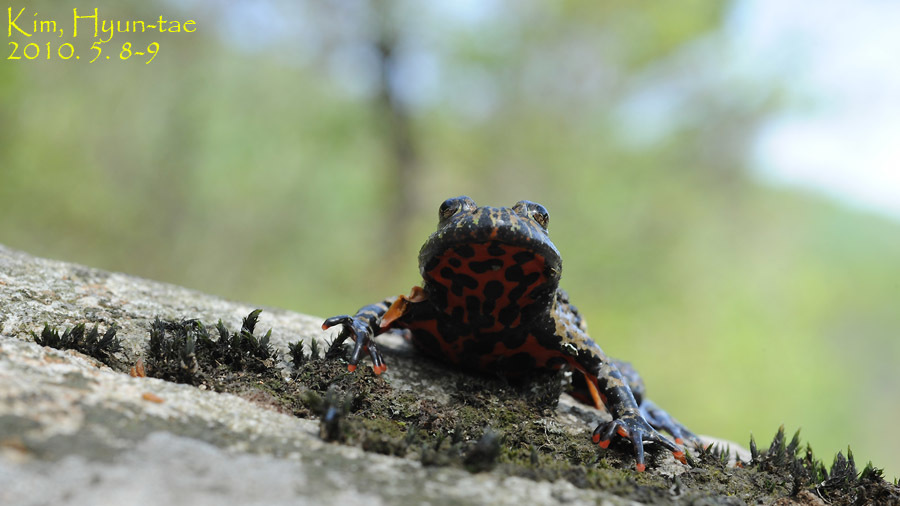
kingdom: Animalia
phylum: Chordata
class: Amphibia
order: Anura
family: Bombinatoridae
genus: Bombina
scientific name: Bombina orientalis
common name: Oriental firebelly toad
